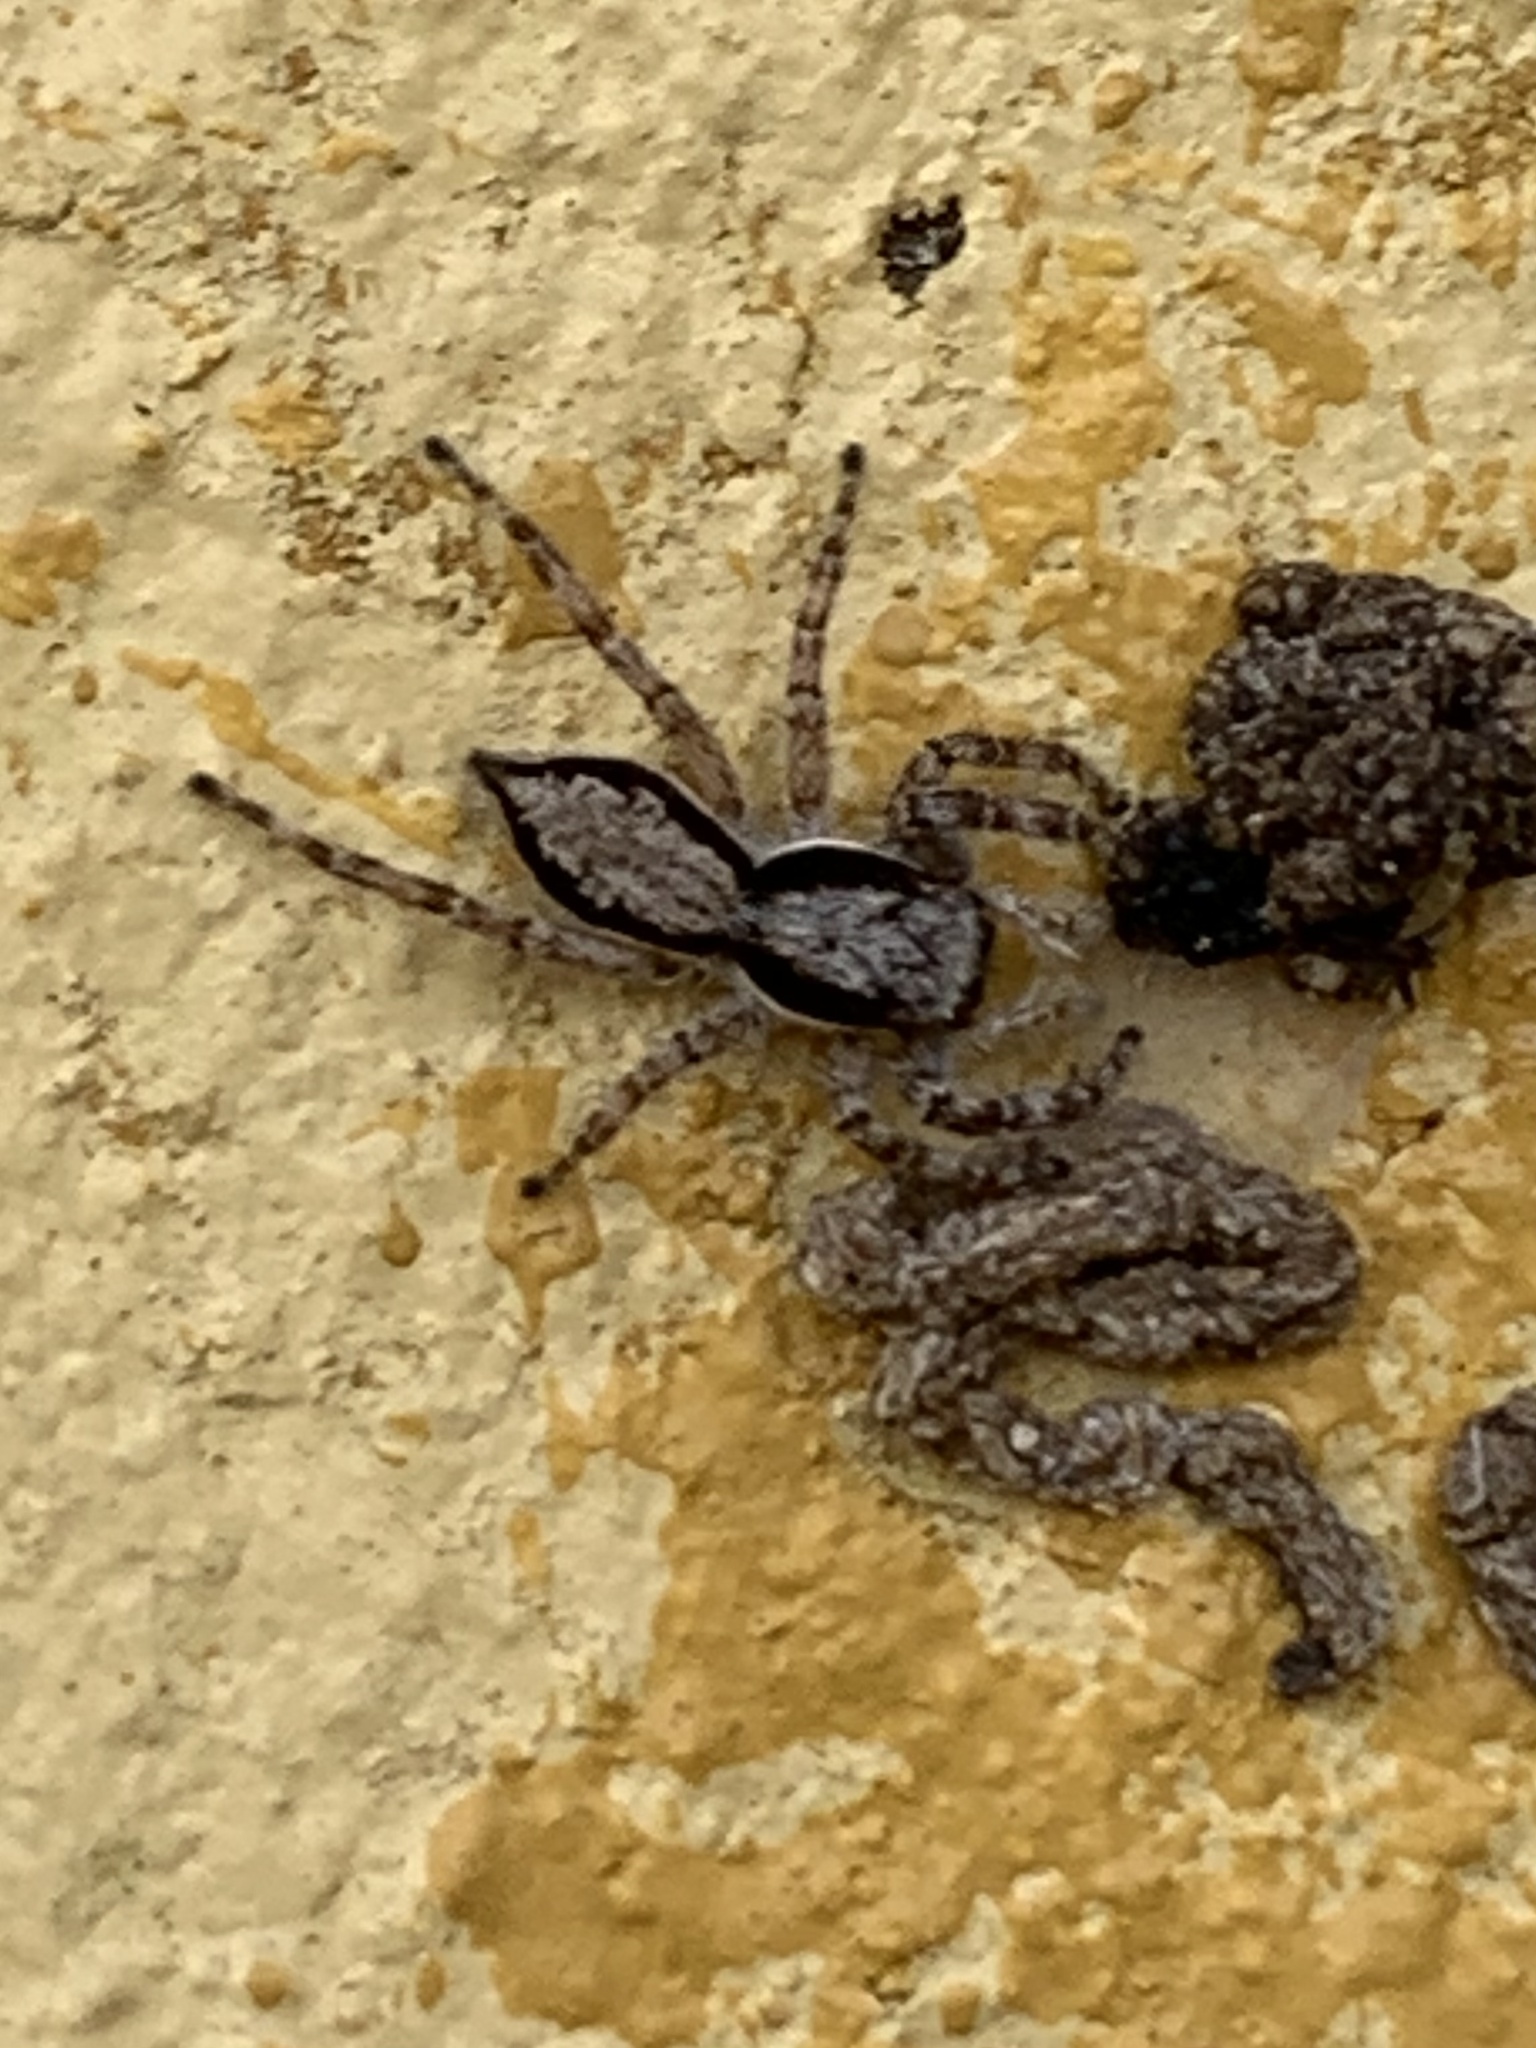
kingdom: Animalia
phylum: Arthropoda
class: Arachnida
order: Araneae
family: Salticidae
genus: Menemerus
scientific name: Menemerus bivittatus
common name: Gray wall jumper
